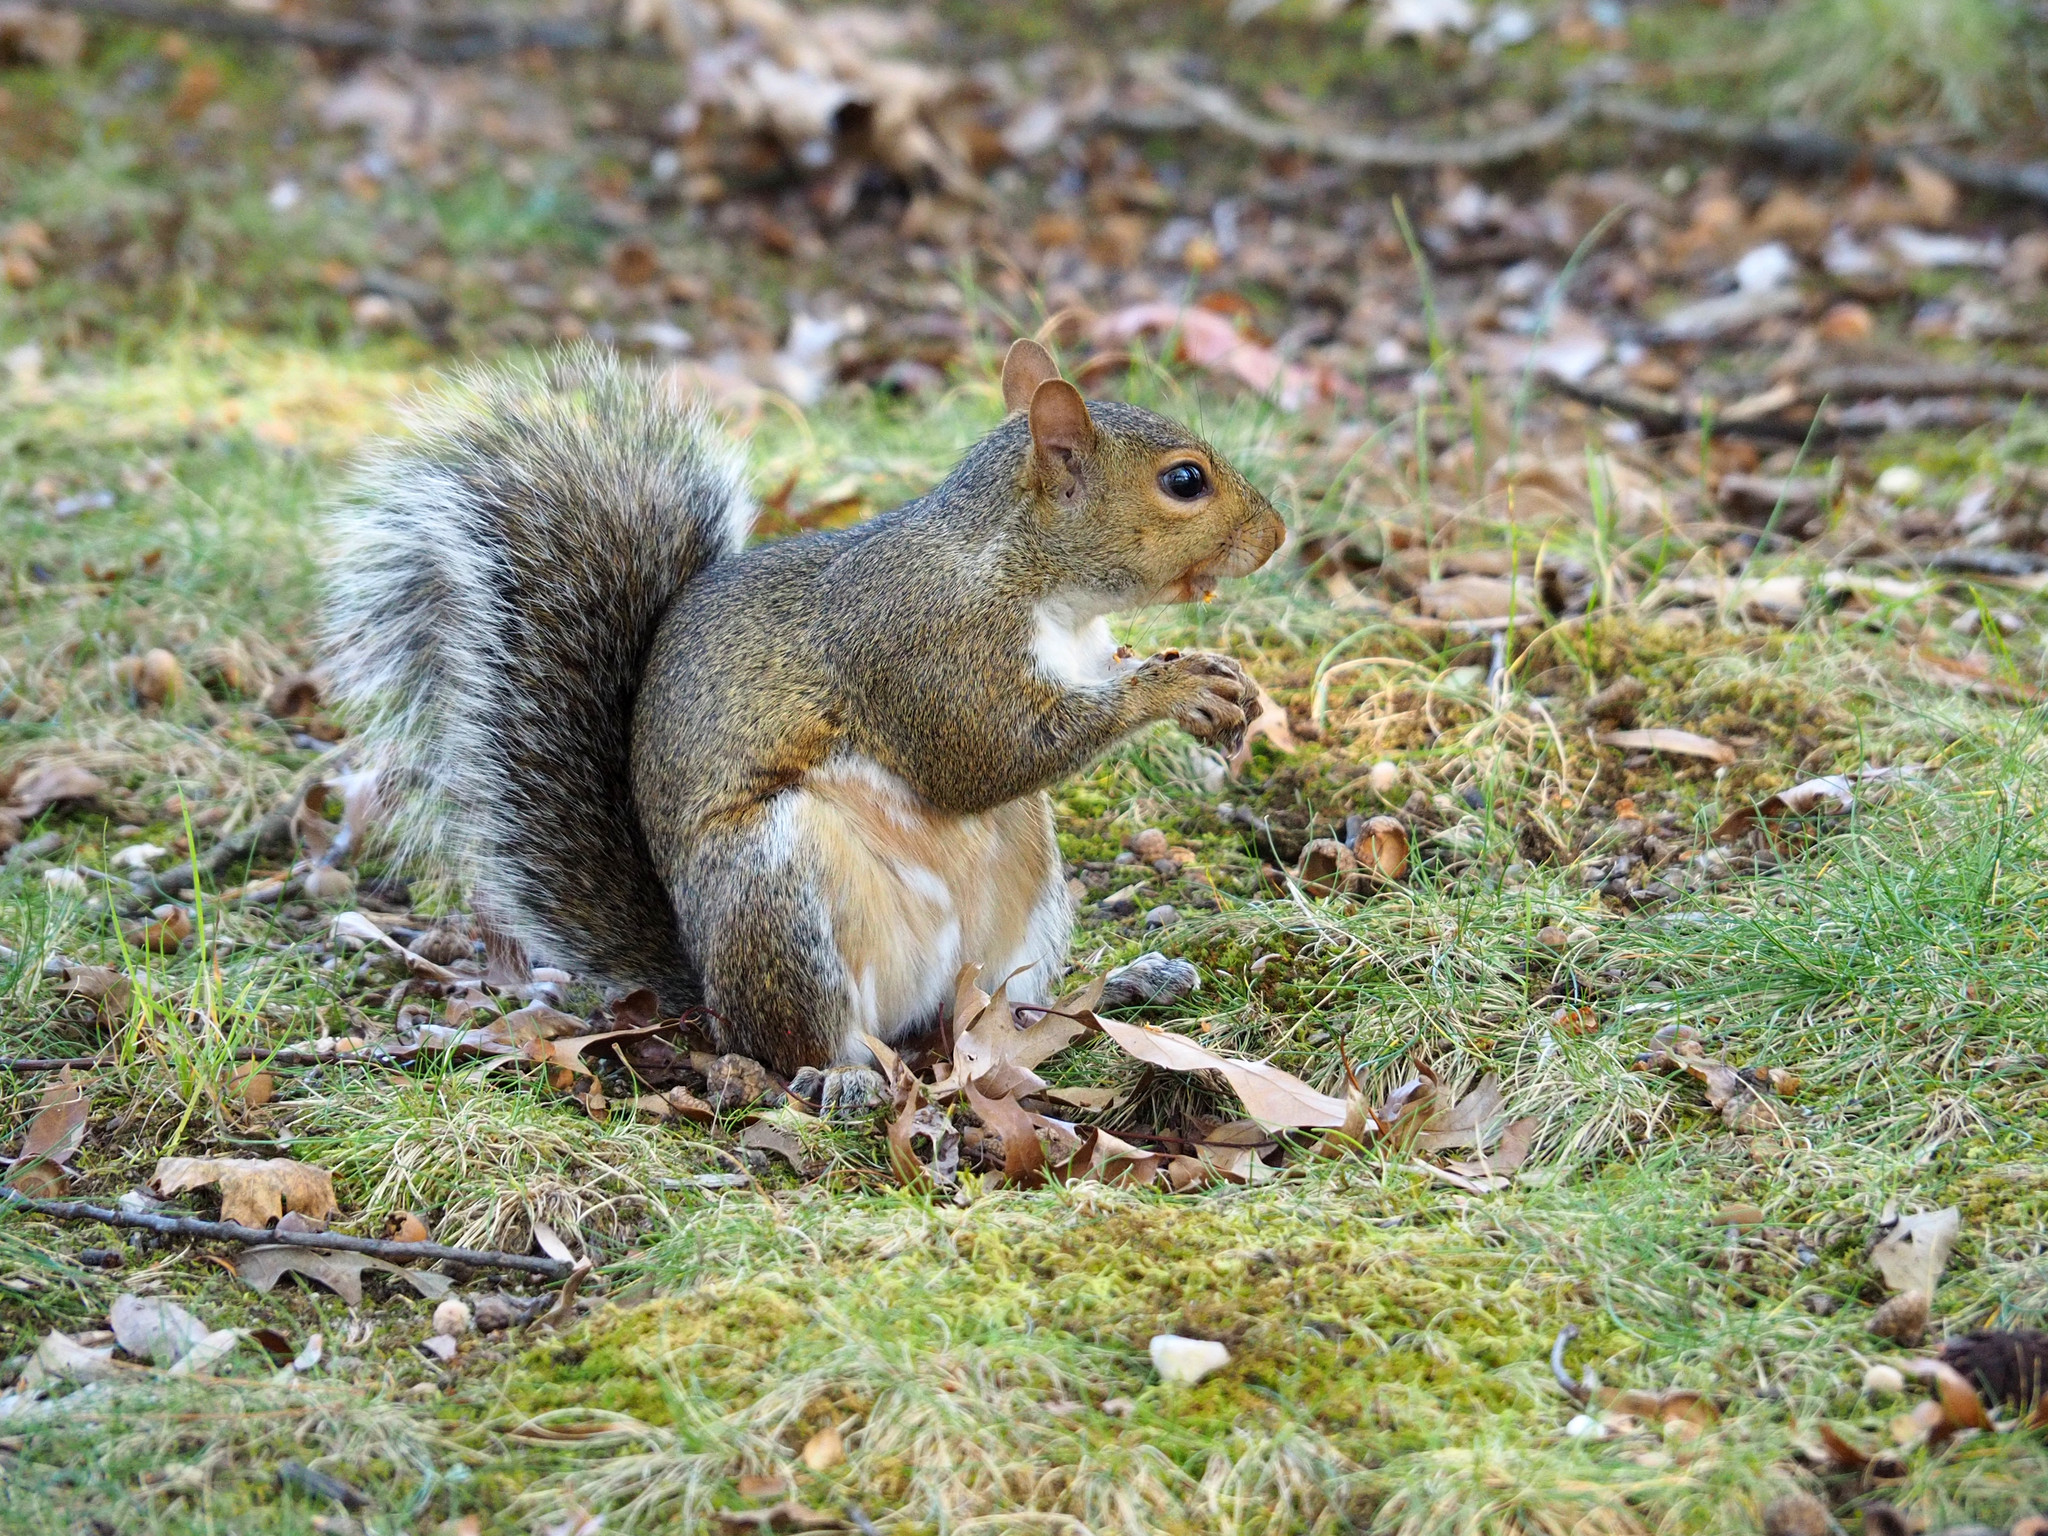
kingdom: Animalia
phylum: Chordata
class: Mammalia
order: Rodentia
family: Sciuridae
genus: Sciurus
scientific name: Sciurus carolinensis
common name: Eastern gray squirrel
